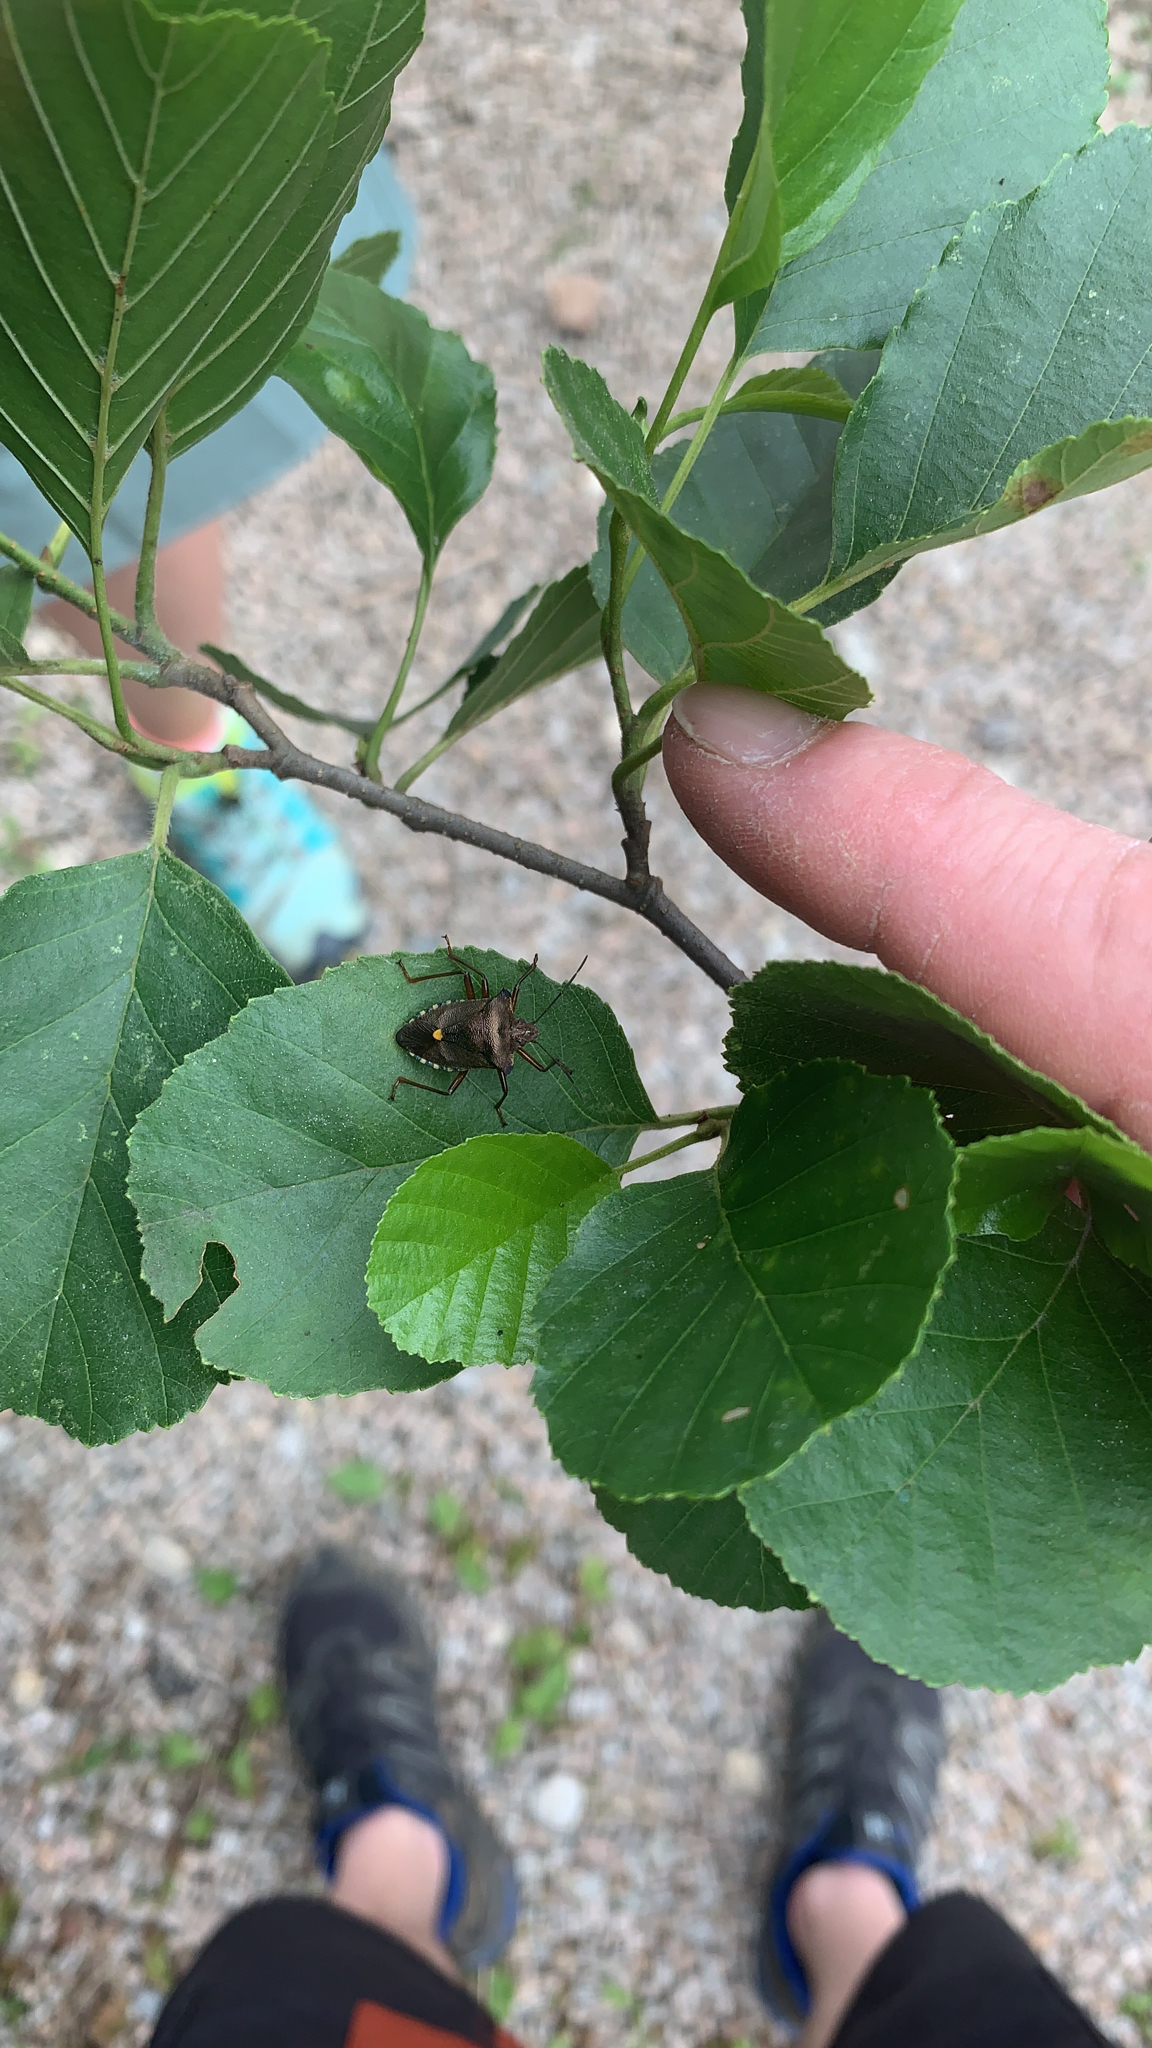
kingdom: Animalia
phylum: Arthropoda
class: Insecta
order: Hemiptera
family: Pentatomidae
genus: Pentatoma
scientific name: Pentatoma rufipes
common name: Forest bug
